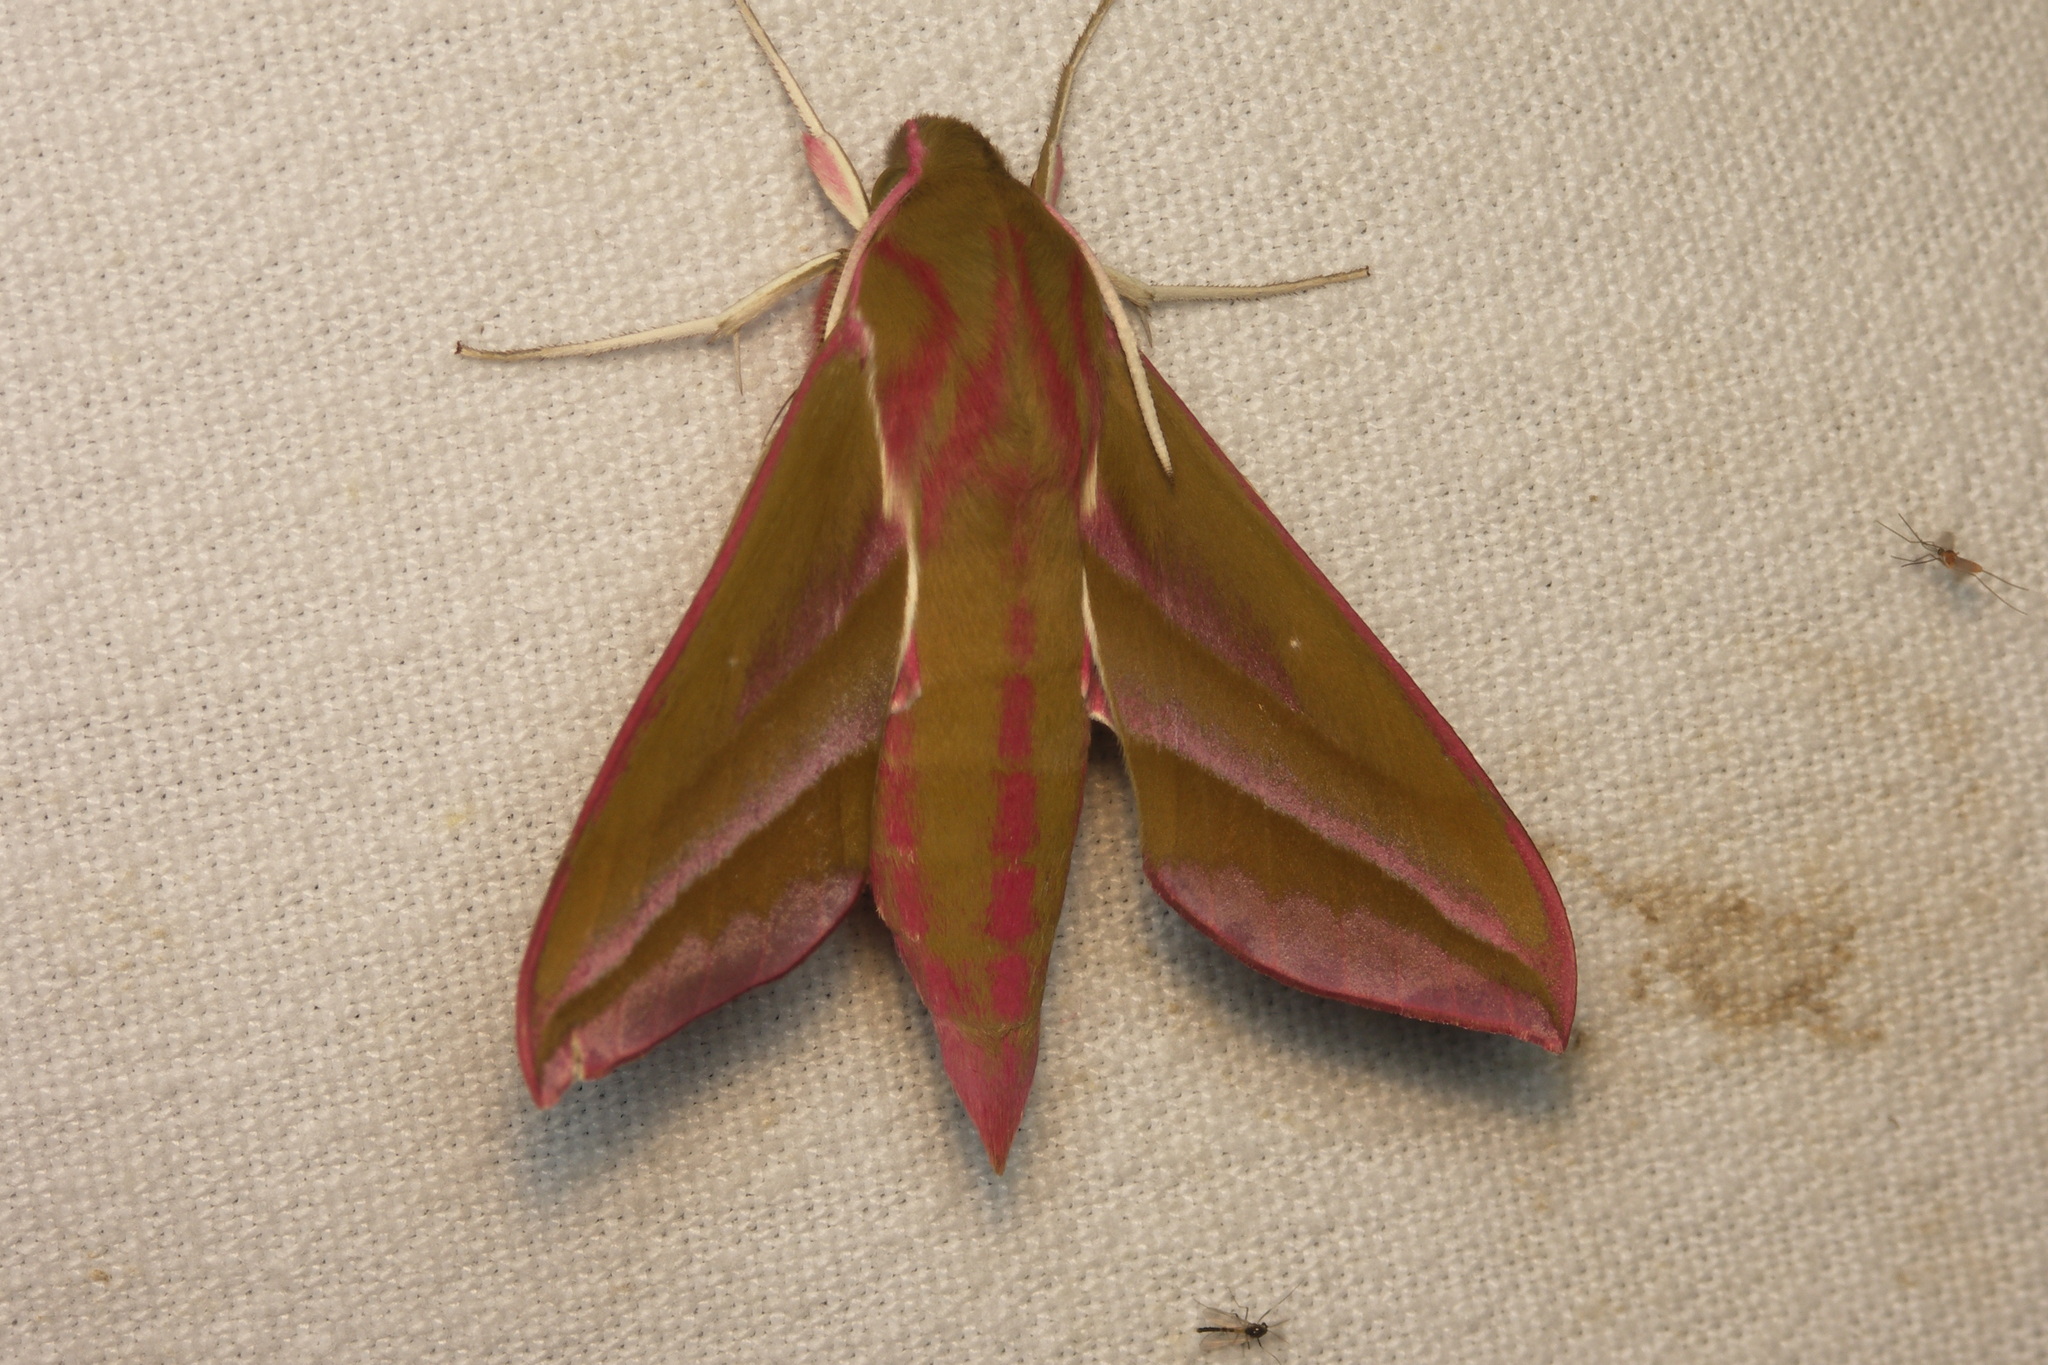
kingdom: Animalia
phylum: Arthropoda
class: Insecta
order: Lepidoptera
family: Sphingidae
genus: Deilephila
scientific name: Deilephila elpenor
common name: Elephant hawk-moth
